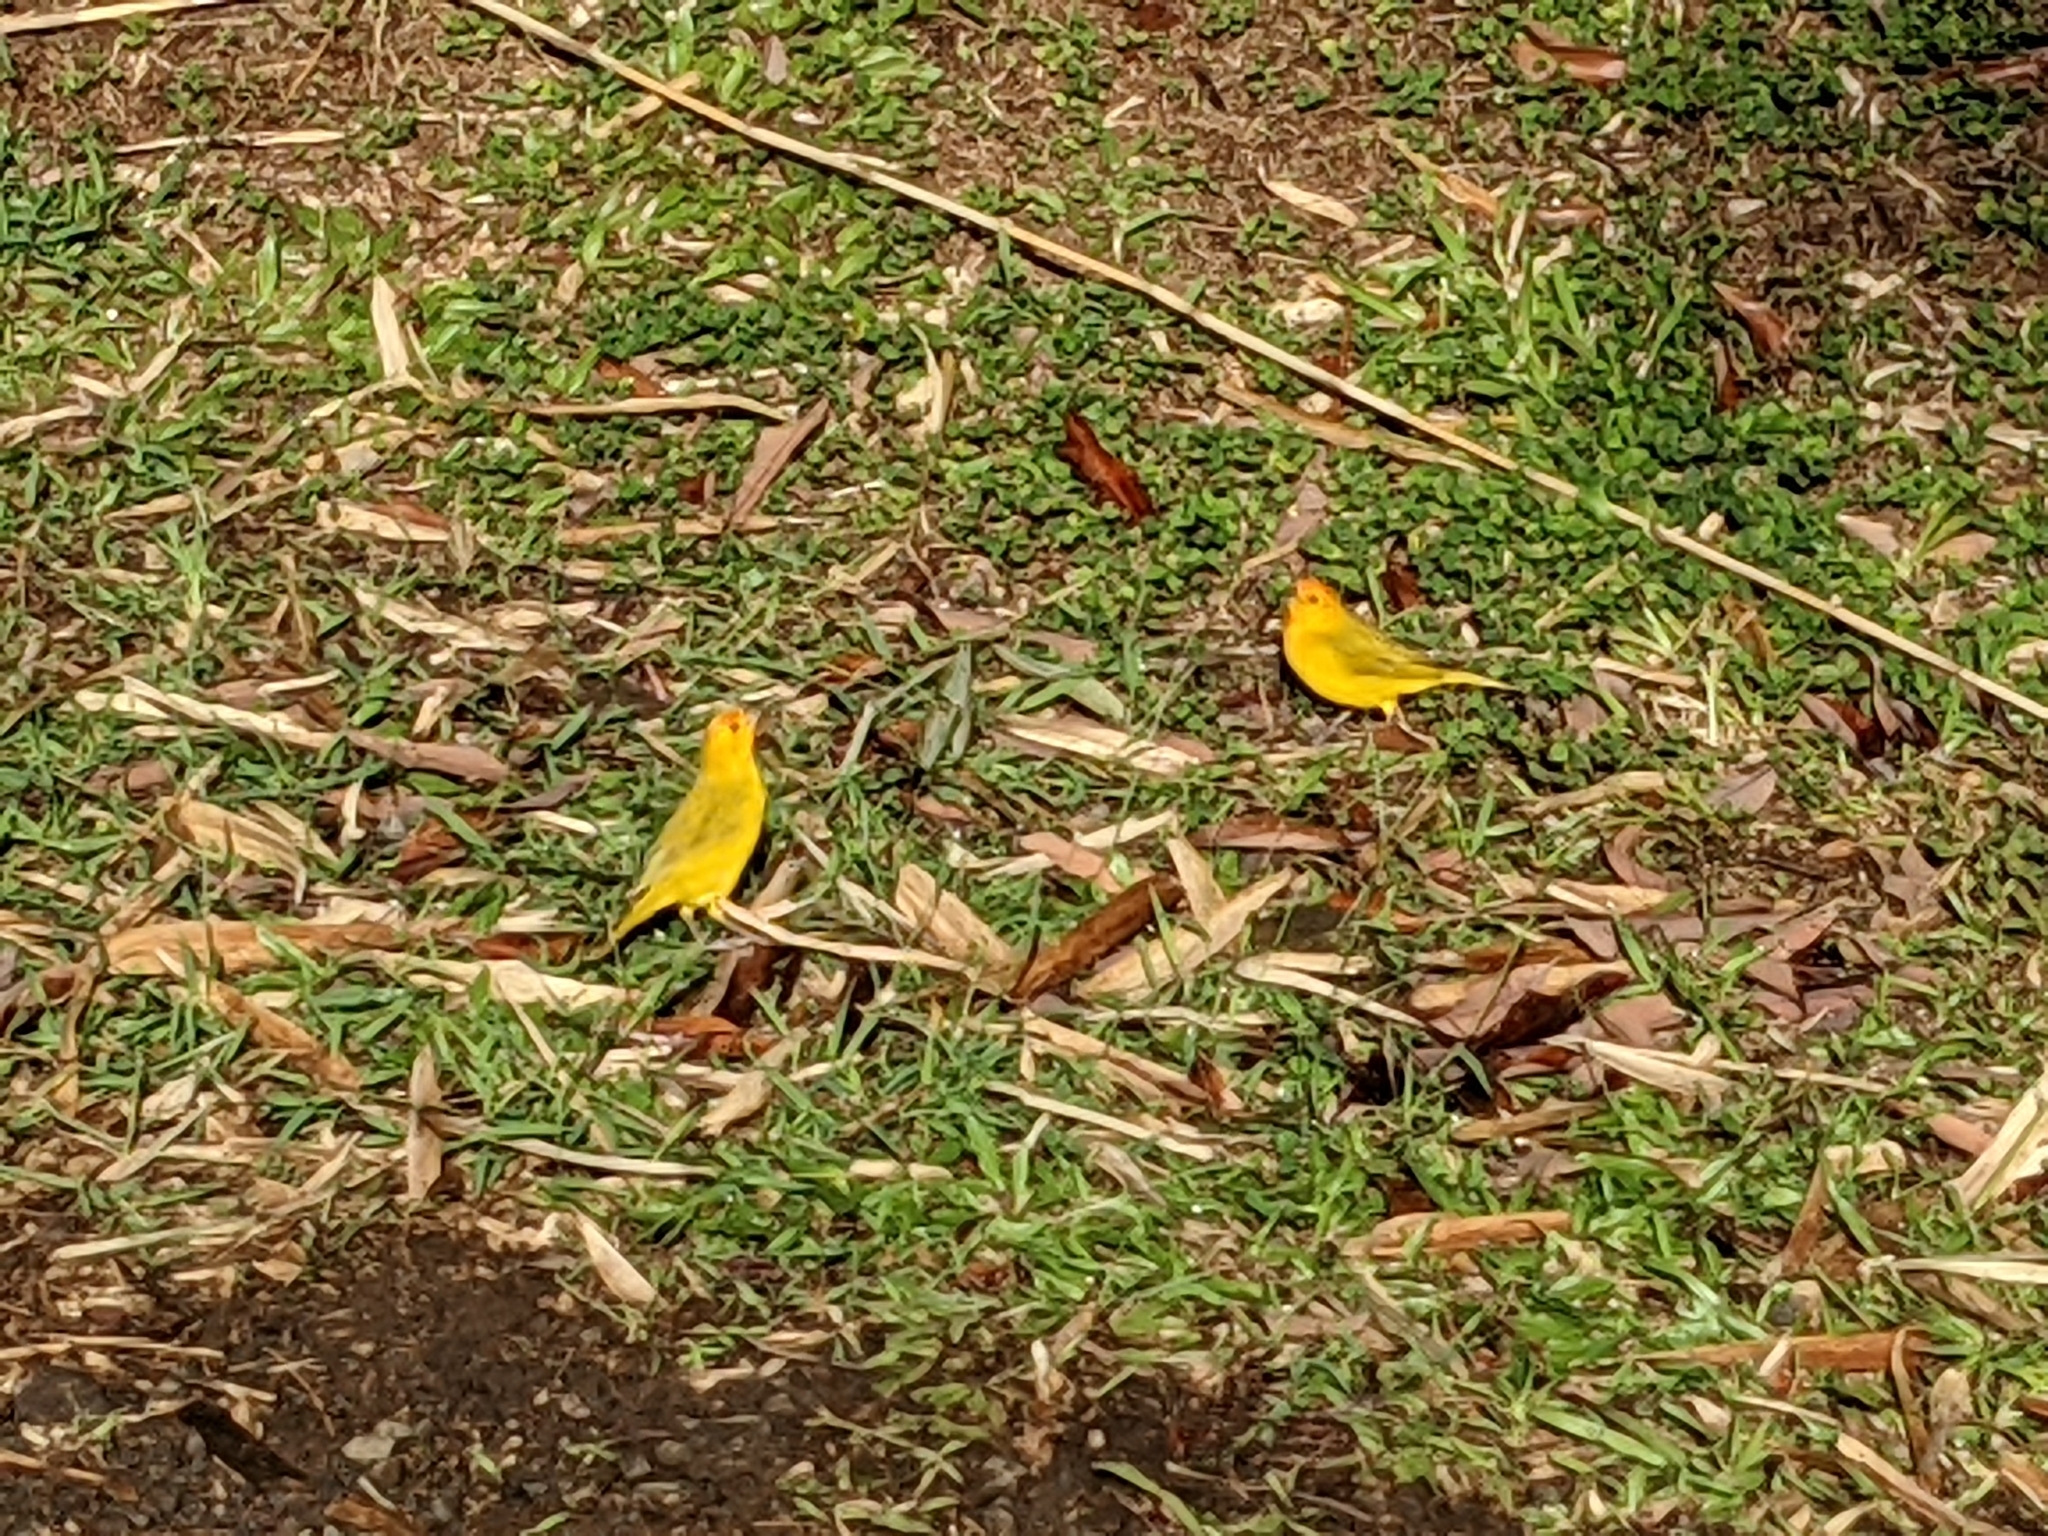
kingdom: Animalia
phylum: Chordata
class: Aves
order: Passeriformes
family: Thraupidae
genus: Sicalis
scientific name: Sicalis flaveola
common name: Saffron finch
